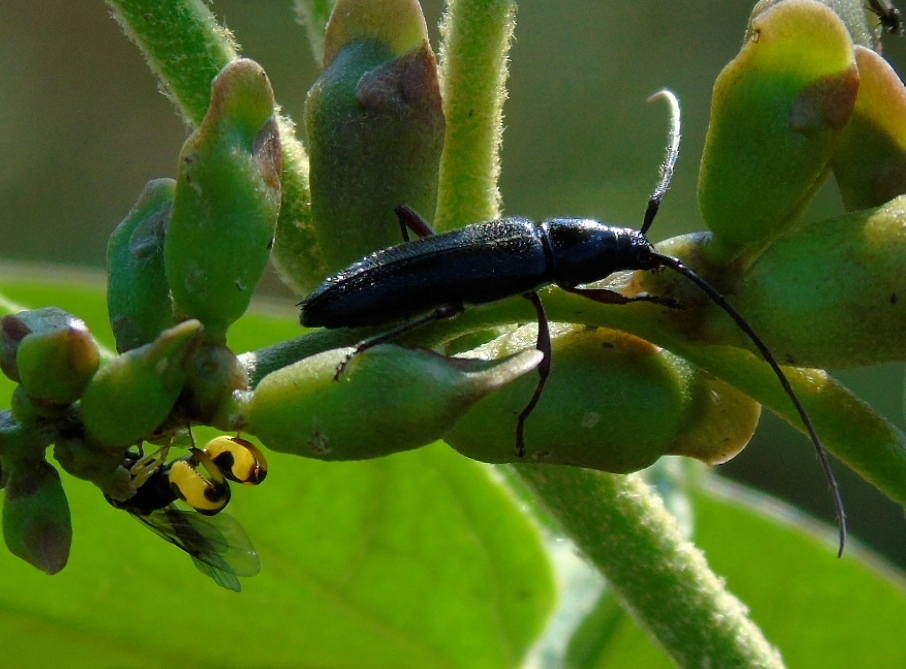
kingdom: Animalia
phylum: Arthropoda
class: Insecta
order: Coleoptera
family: Cerambycidae
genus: Stenosphenus
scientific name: Stenosphenus
